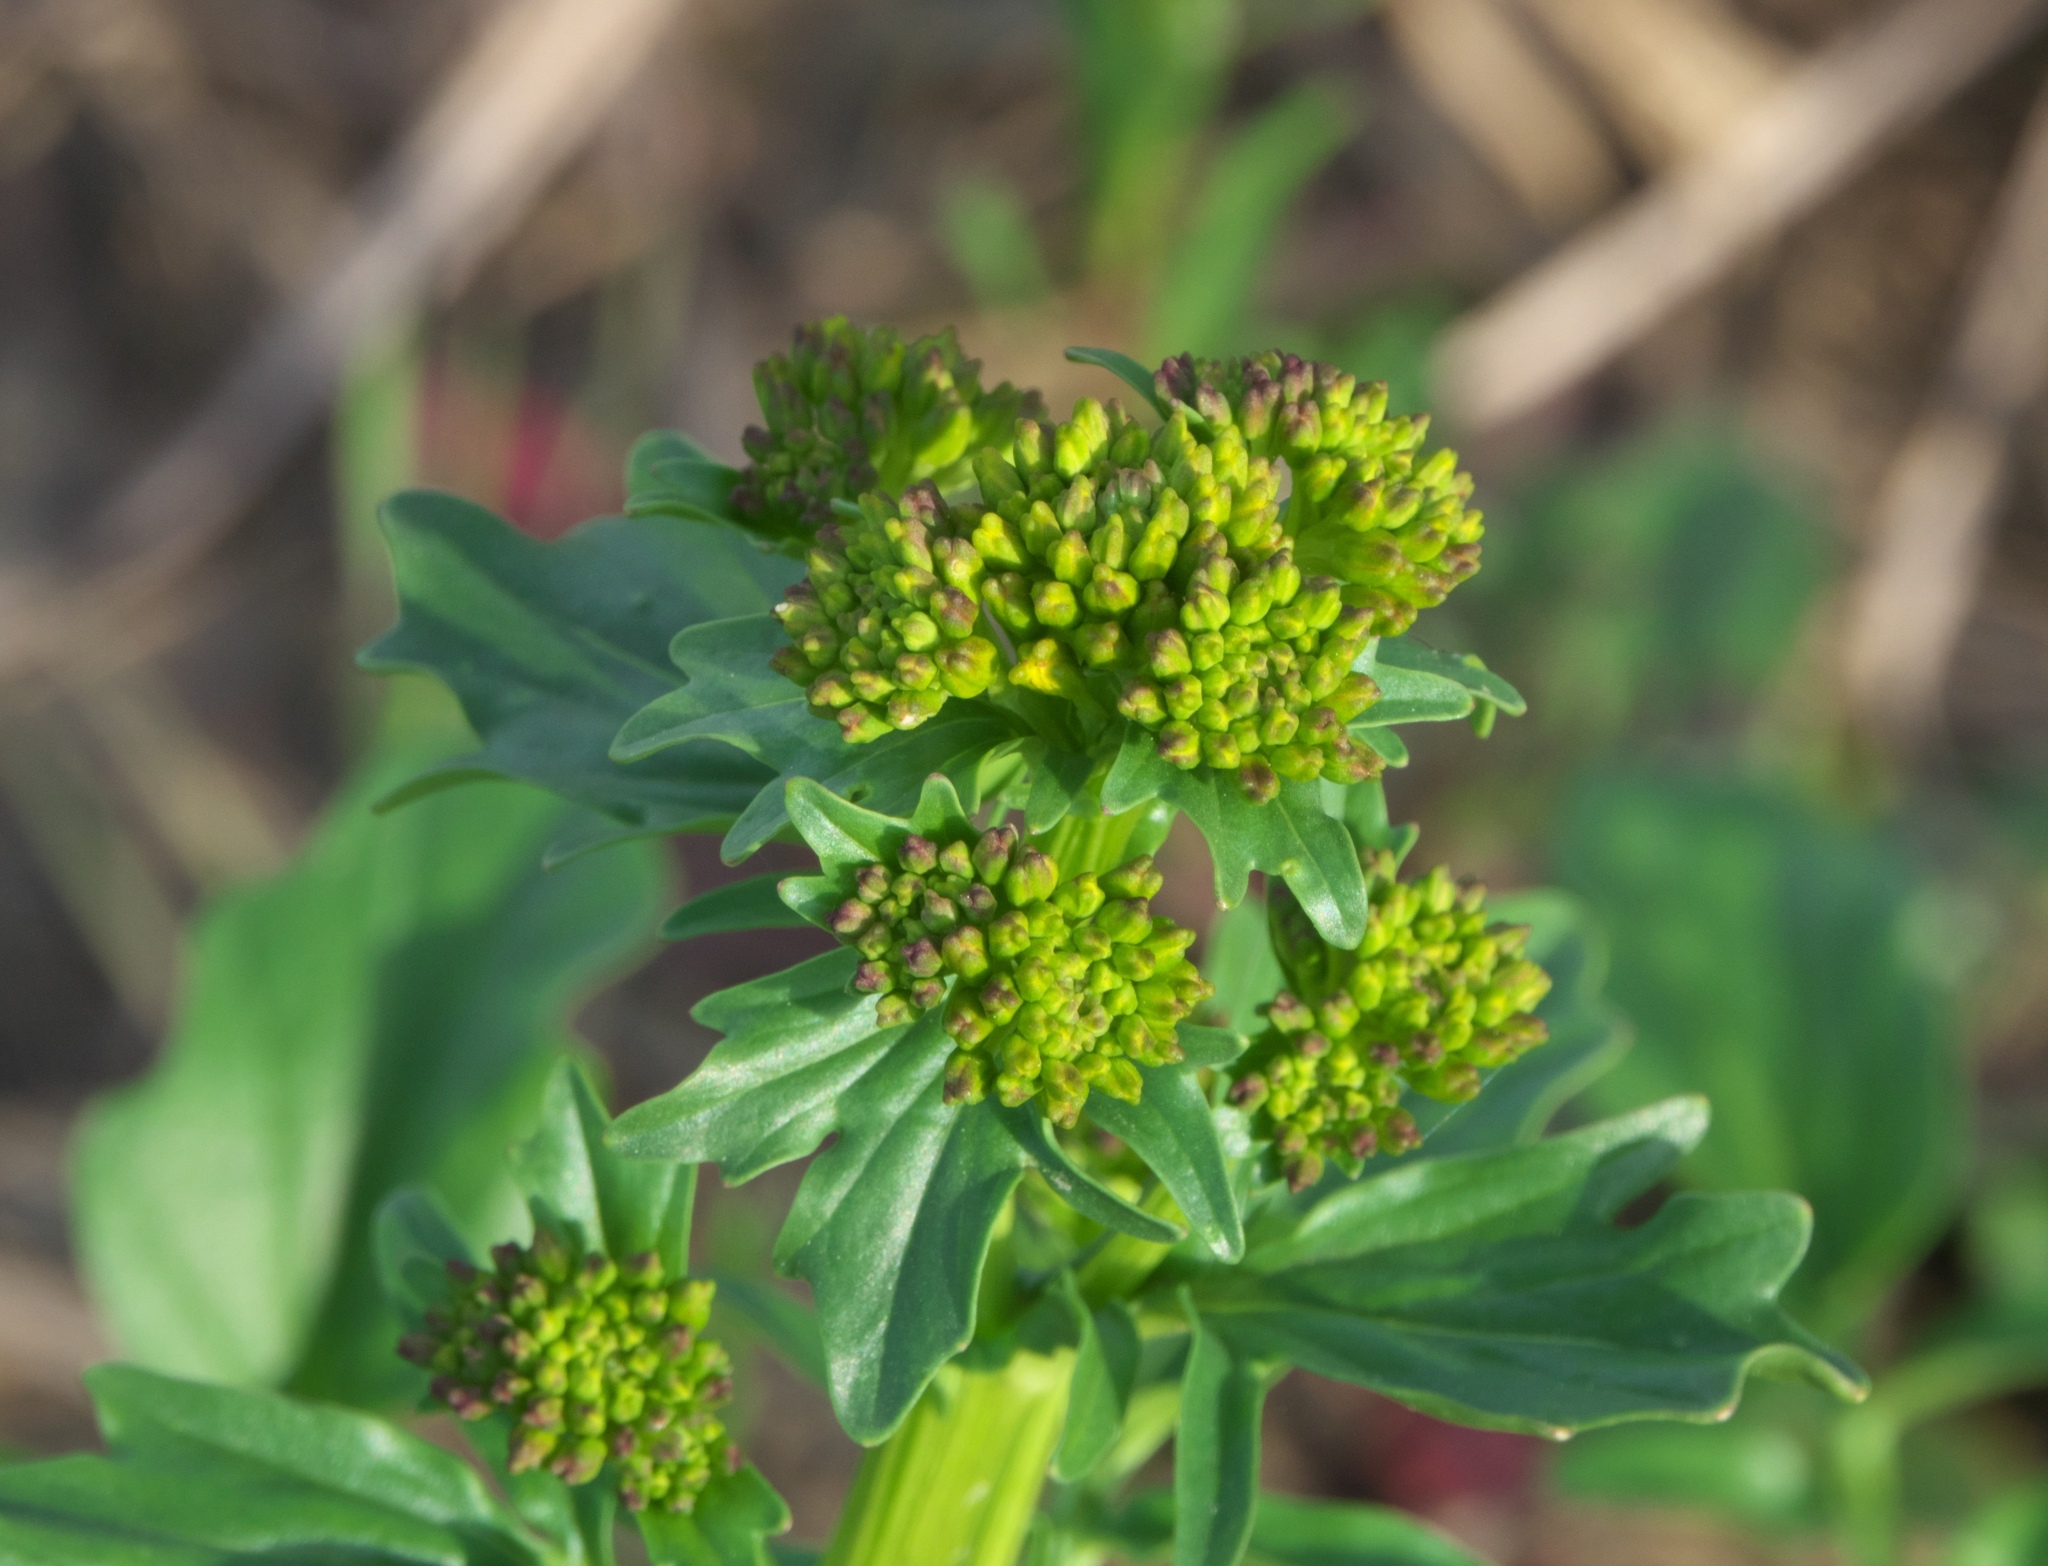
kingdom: Plantae
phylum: Tracheophyta
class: Magnoliopsida
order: Brassicales
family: Brassicaceae
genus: Barbarea
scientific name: Barbarea vulgaris
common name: Cressy-greens
